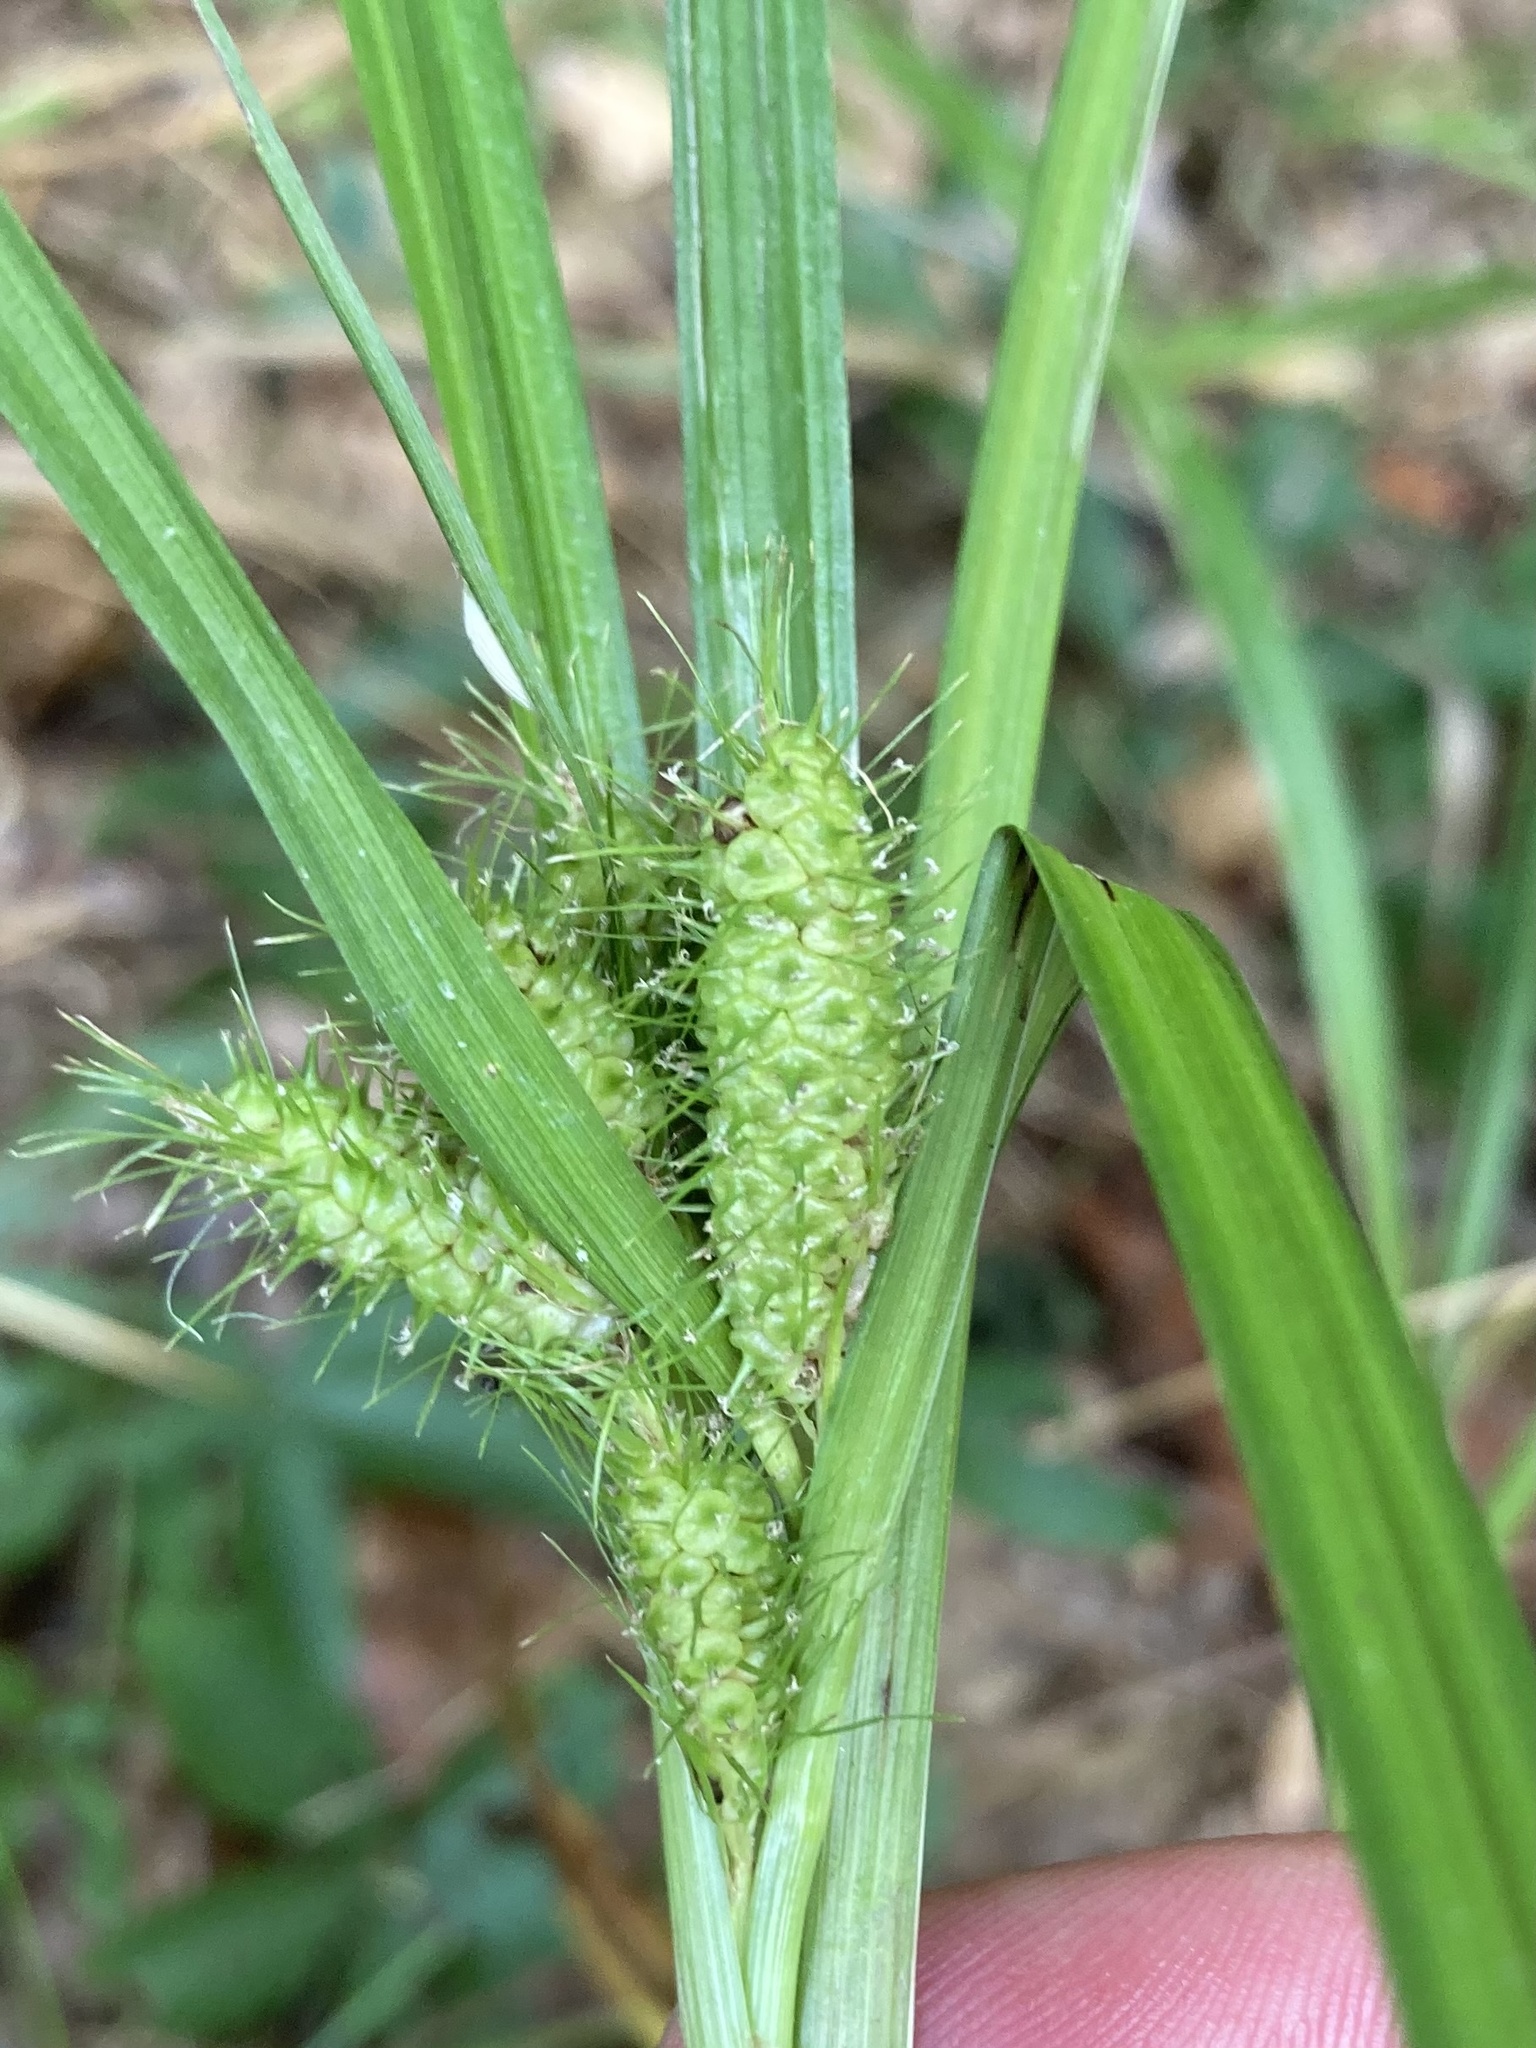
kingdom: Plantae
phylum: Tracheophyta
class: Liliopsida
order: Poales
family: Cyperaceae
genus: Carex
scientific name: Carex frankii
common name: Frank's sedge
